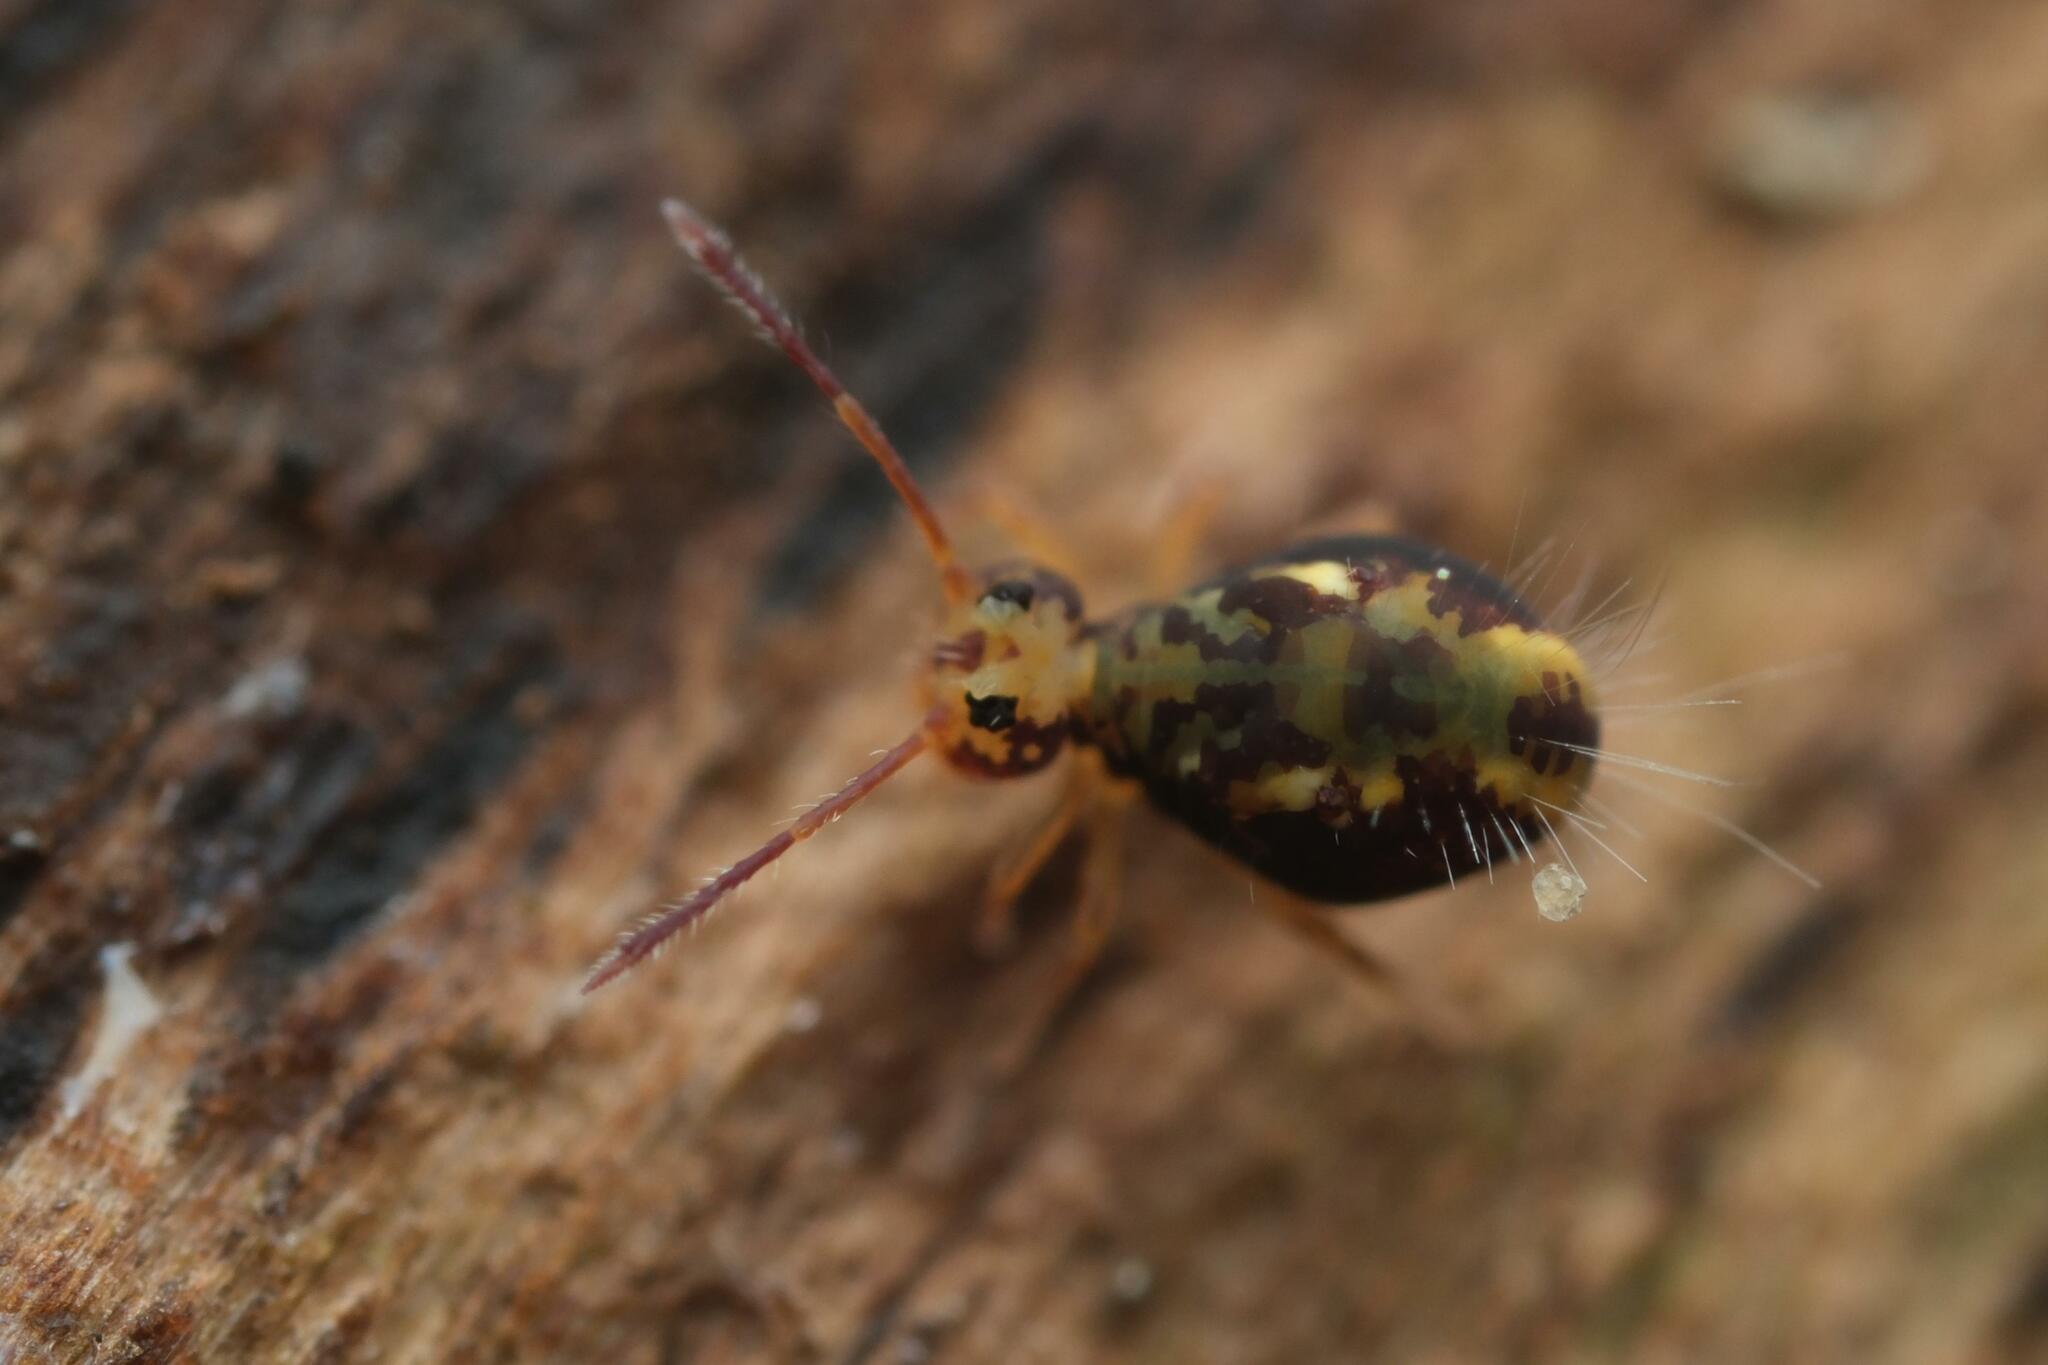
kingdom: Animalia
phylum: Arthropoda
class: Collembola
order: Symphypleona
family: Dicyrtomidae
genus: Dicyrtomina
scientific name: Dicyrtomina saundersi
